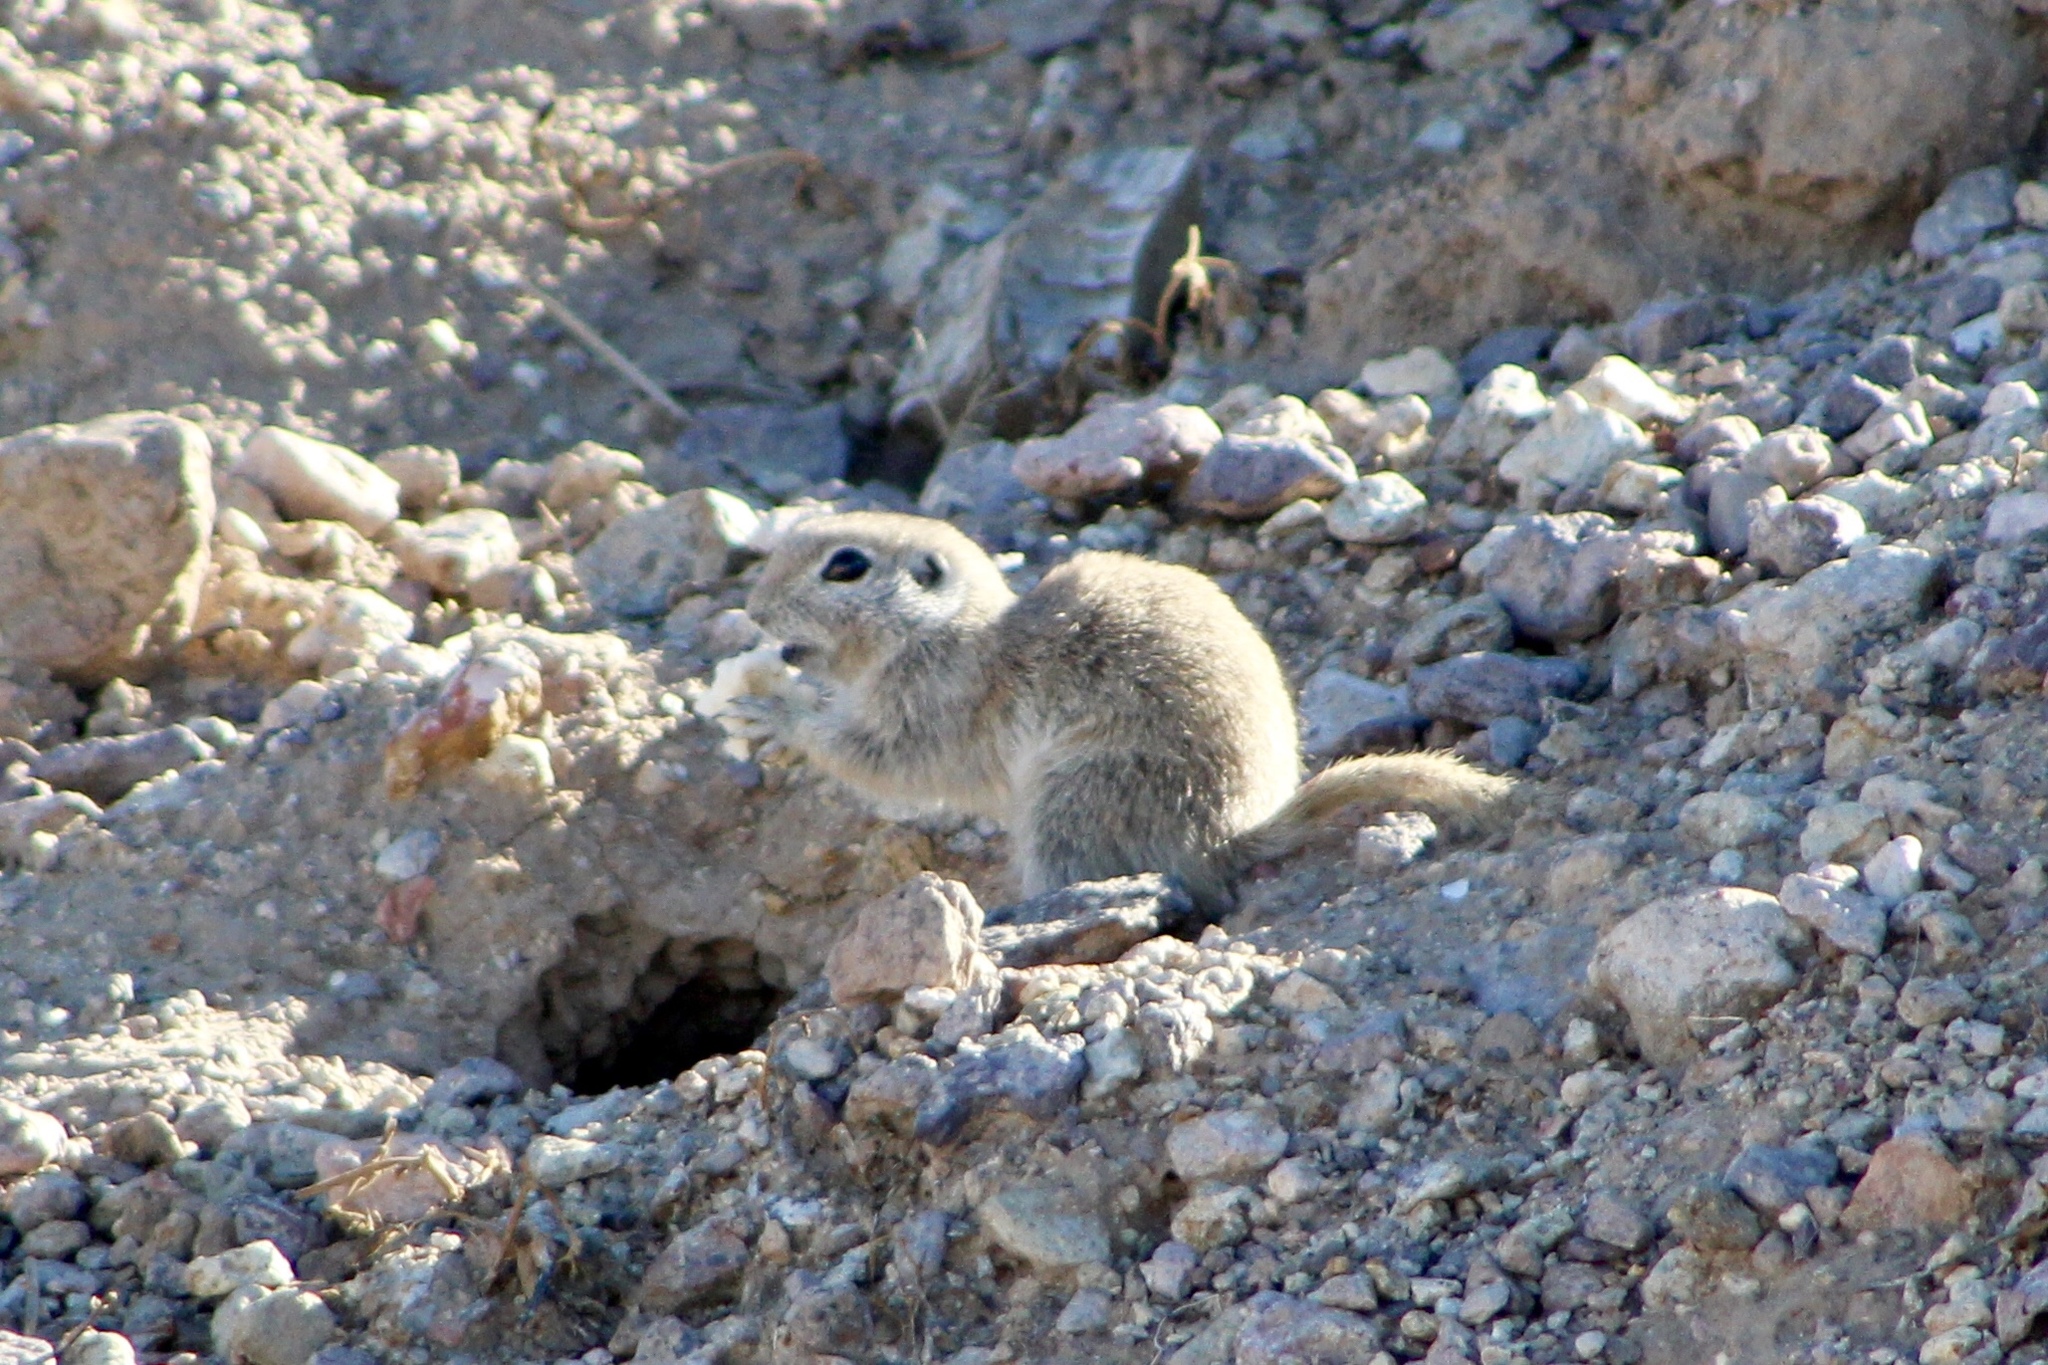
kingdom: Animalia
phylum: Chordata
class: Mammalia
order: Rodentia
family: Sciuridae
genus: Xerospermophilus
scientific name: Xerospermophilus tereticaudus
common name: Round-tailed ground squirrel
